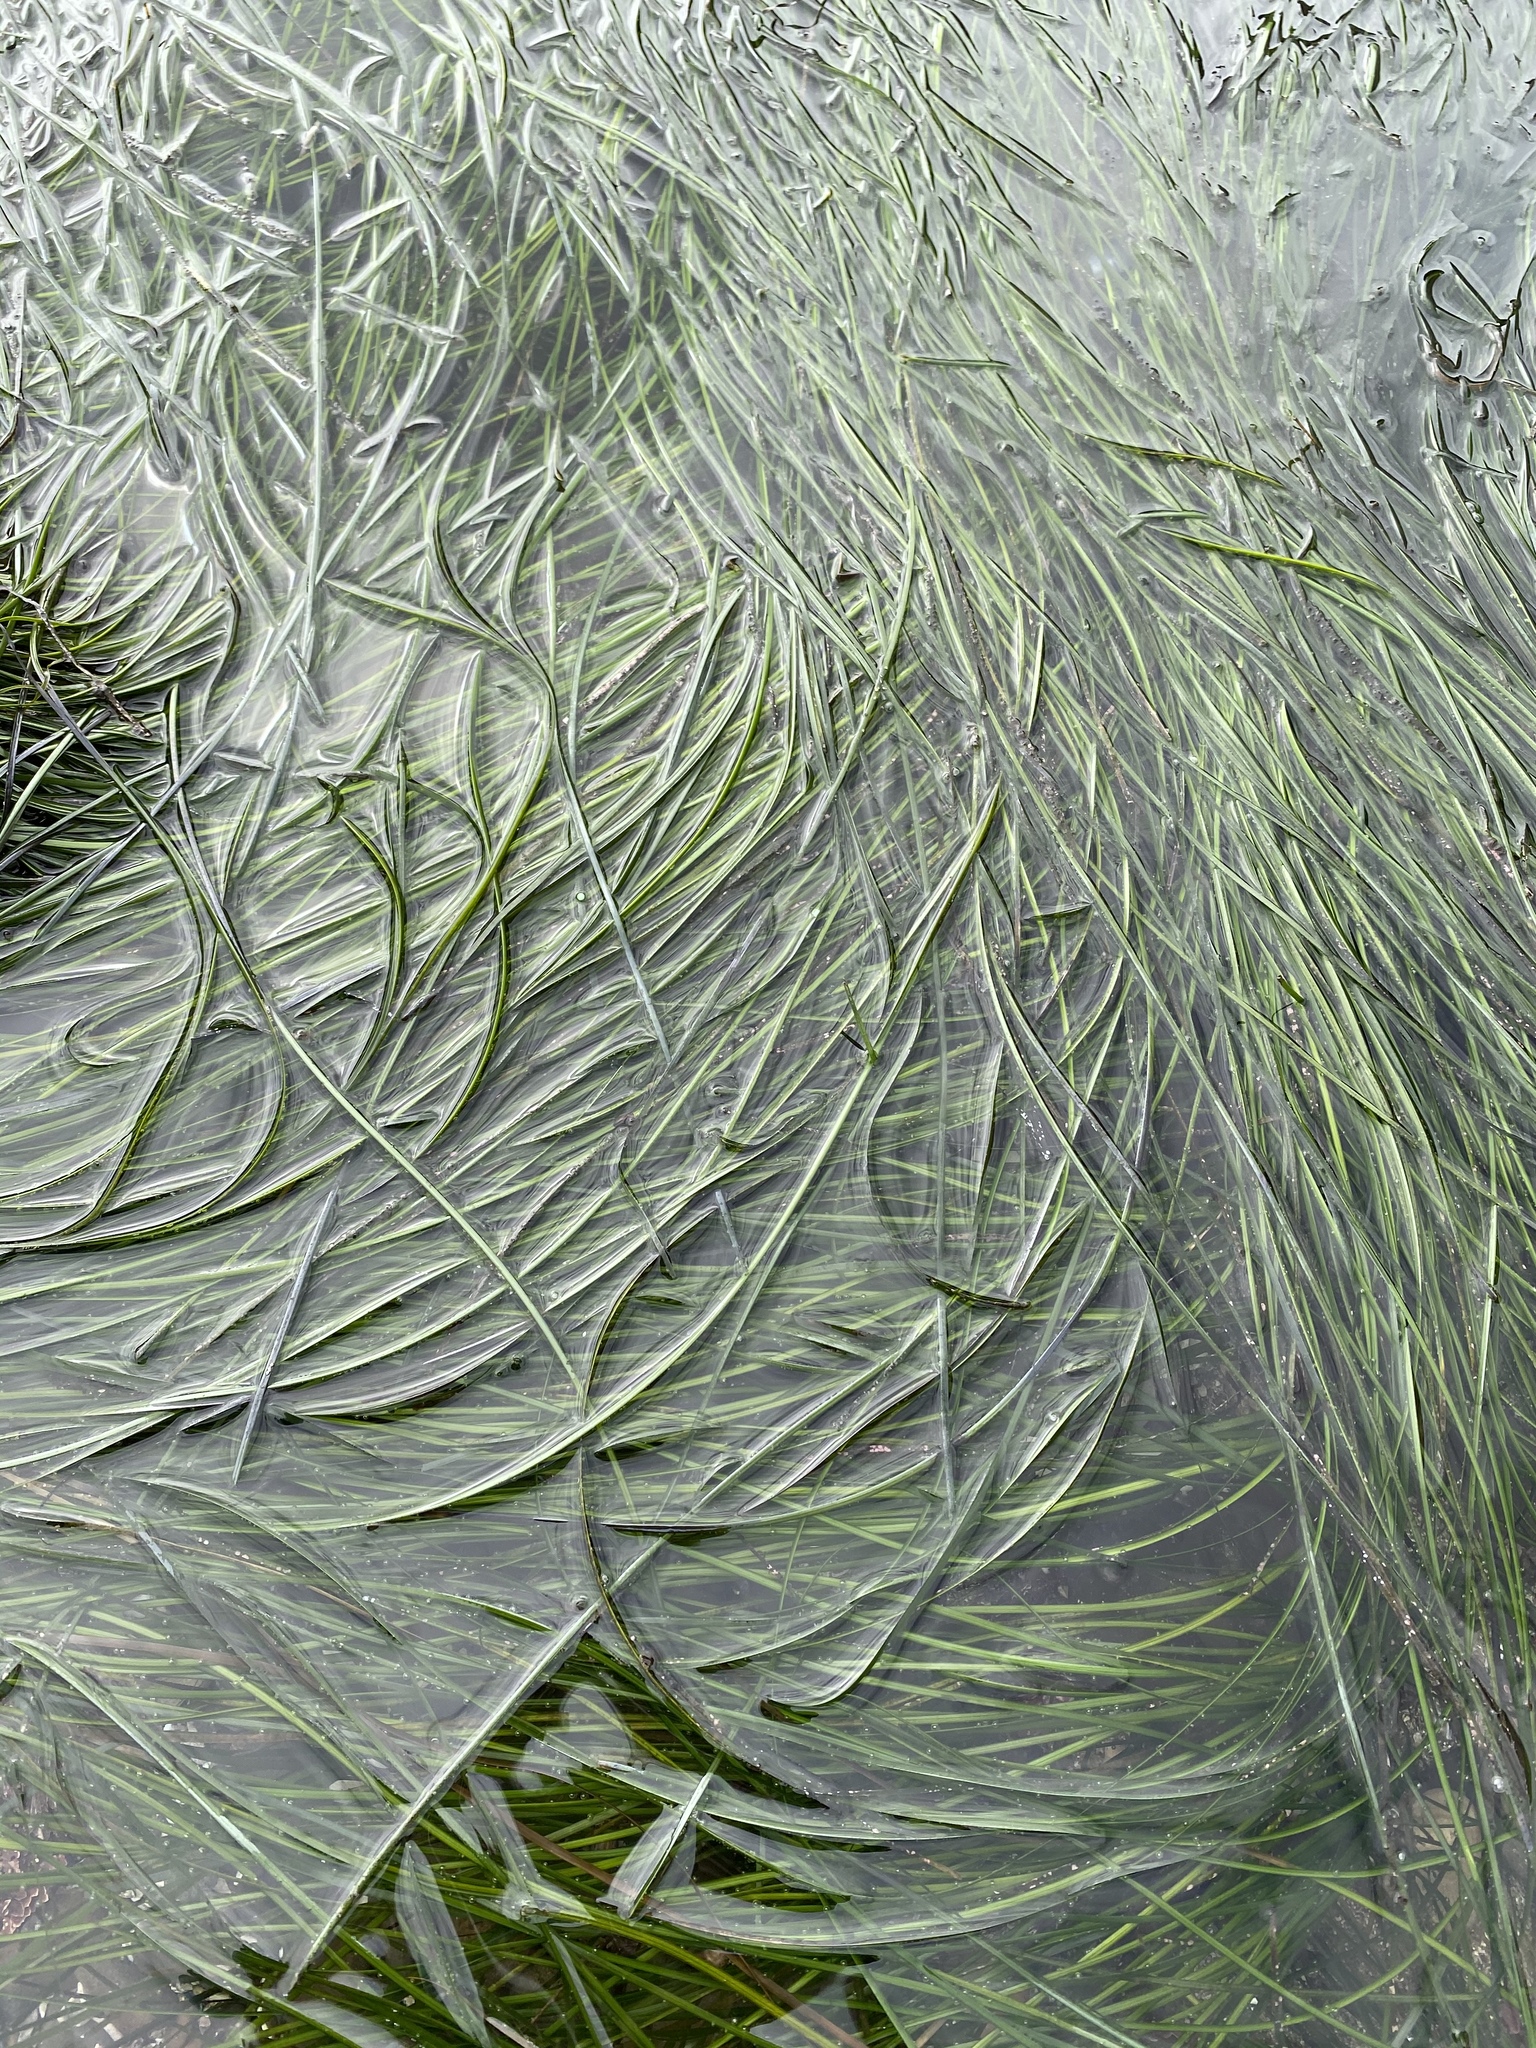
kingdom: Plantae
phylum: Tracheophyta
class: Liliopsida
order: Alismatales
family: Zosteraceae
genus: Phyllospadix
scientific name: Phyllospadix torreyi
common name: Surfgrass
